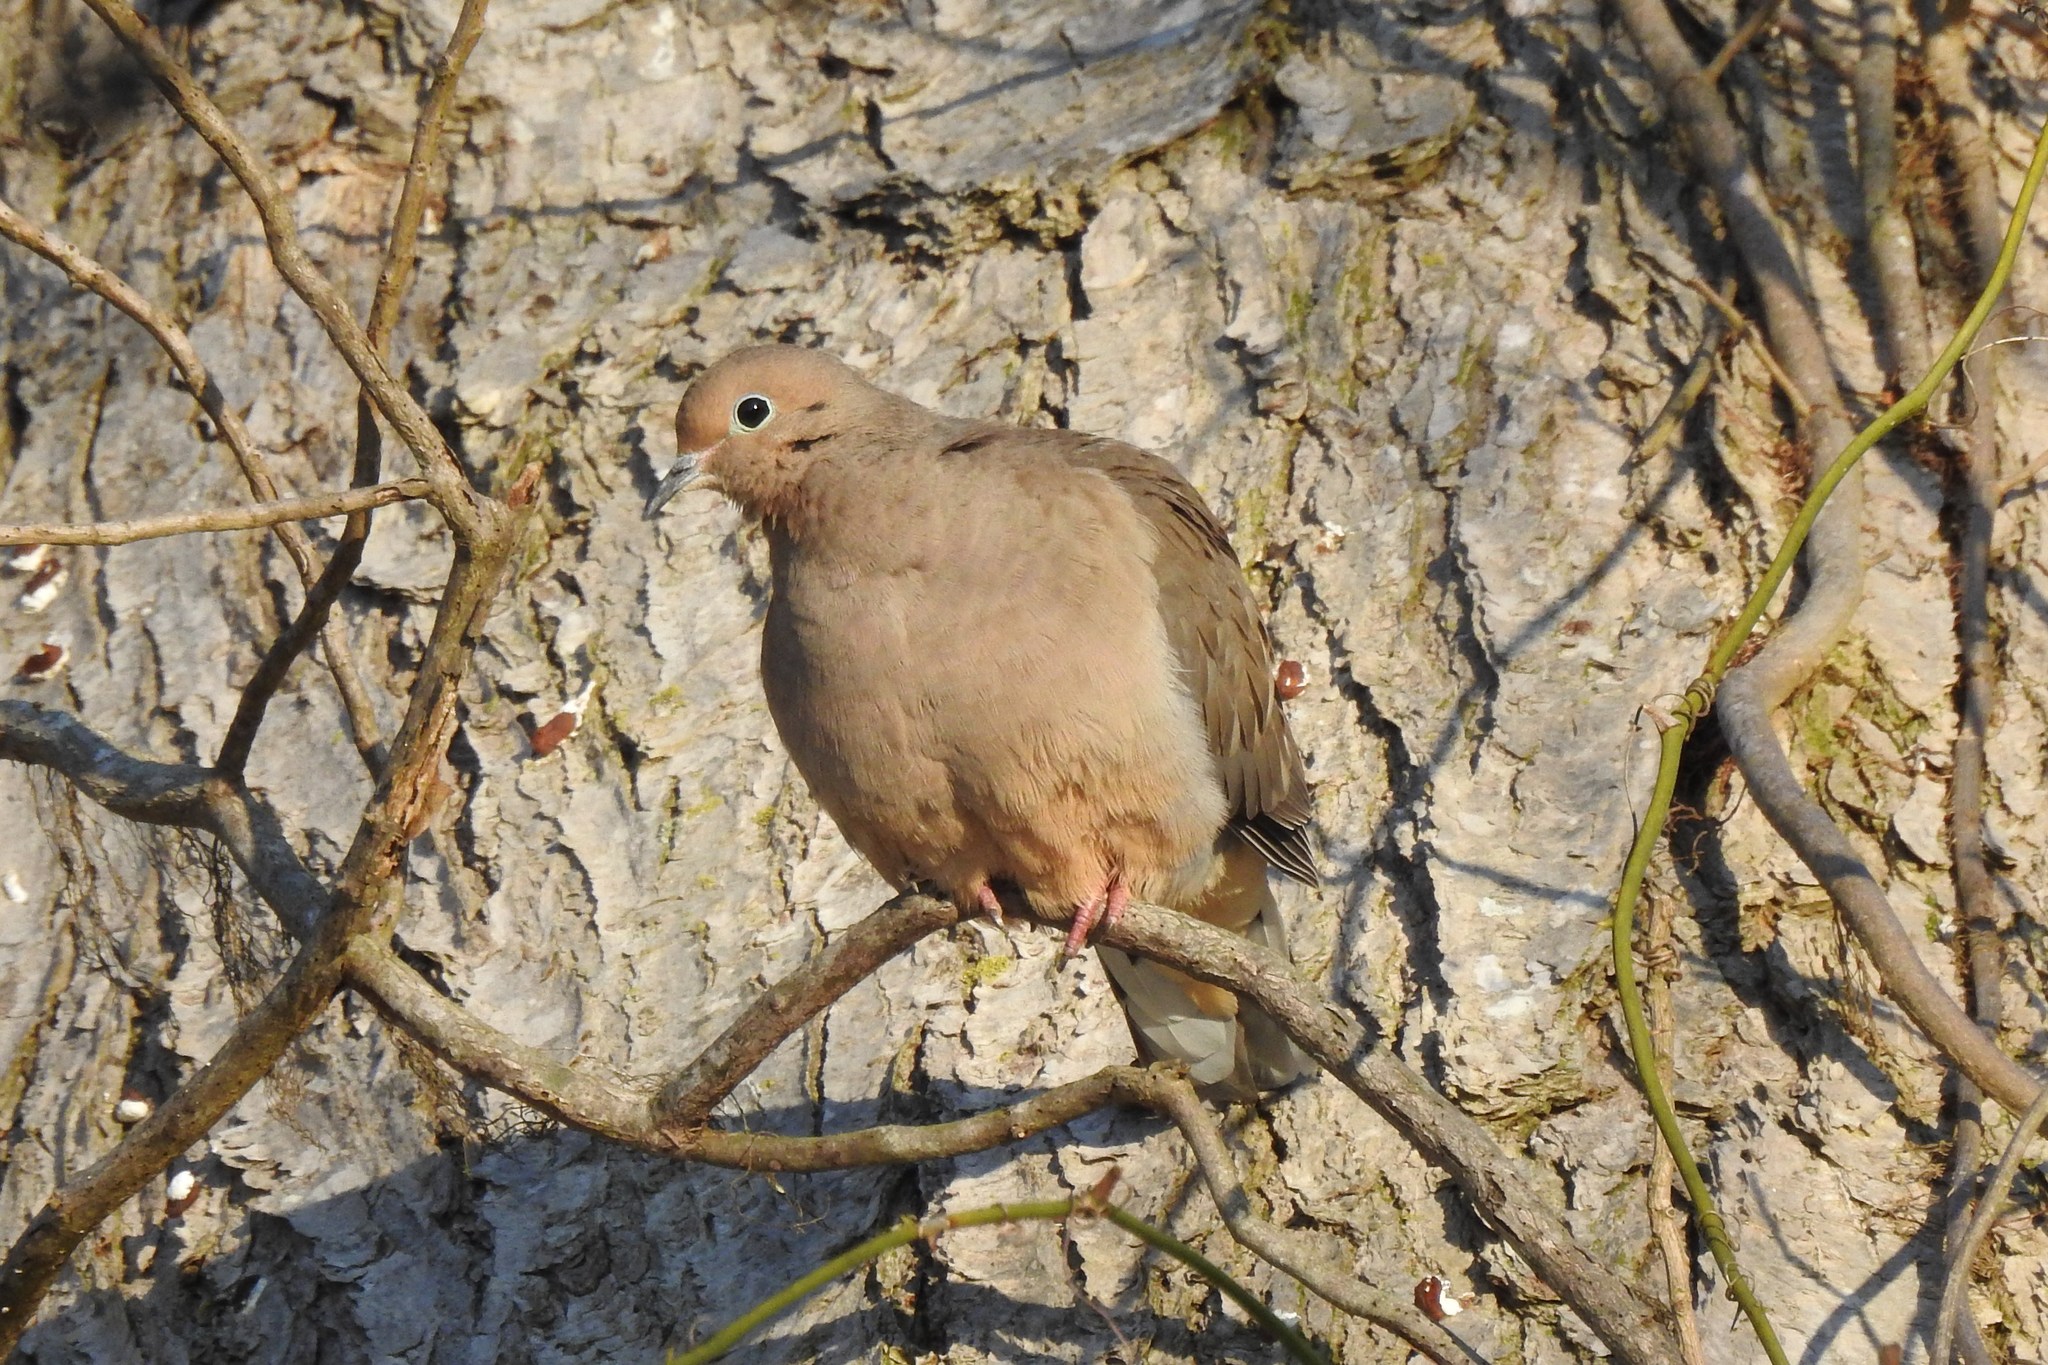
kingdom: Animalia
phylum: Chordata
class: Aves
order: Columbiformes
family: Columbidae
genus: Zenaida
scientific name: Zenaida macroura
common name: Mourning dove
